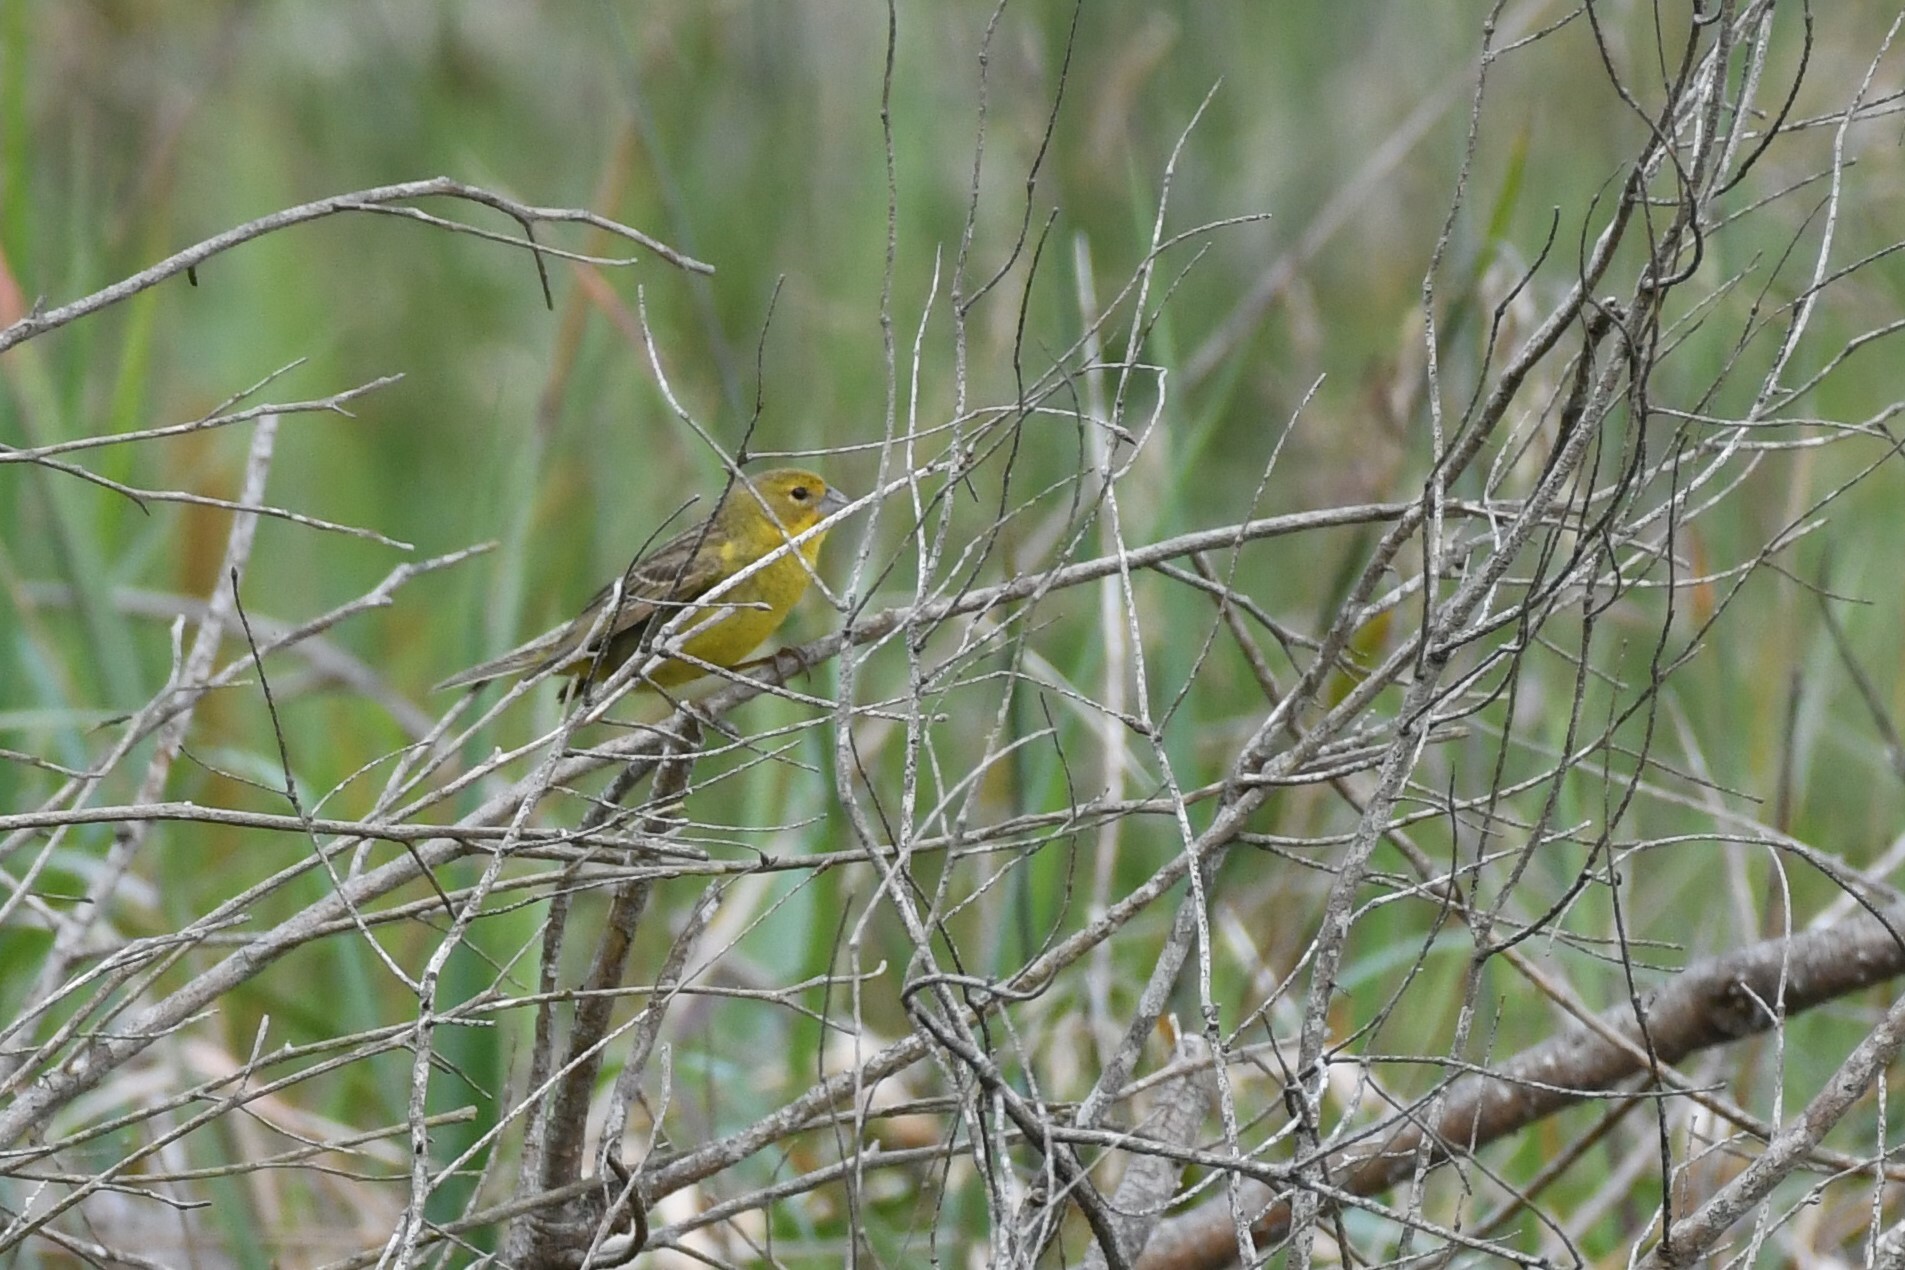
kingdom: Animalia
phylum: Chordata
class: Aves
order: Passeriformes
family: Thraupidae
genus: Sicalis
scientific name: Sicalis luteola
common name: Grassland yellow-finch
